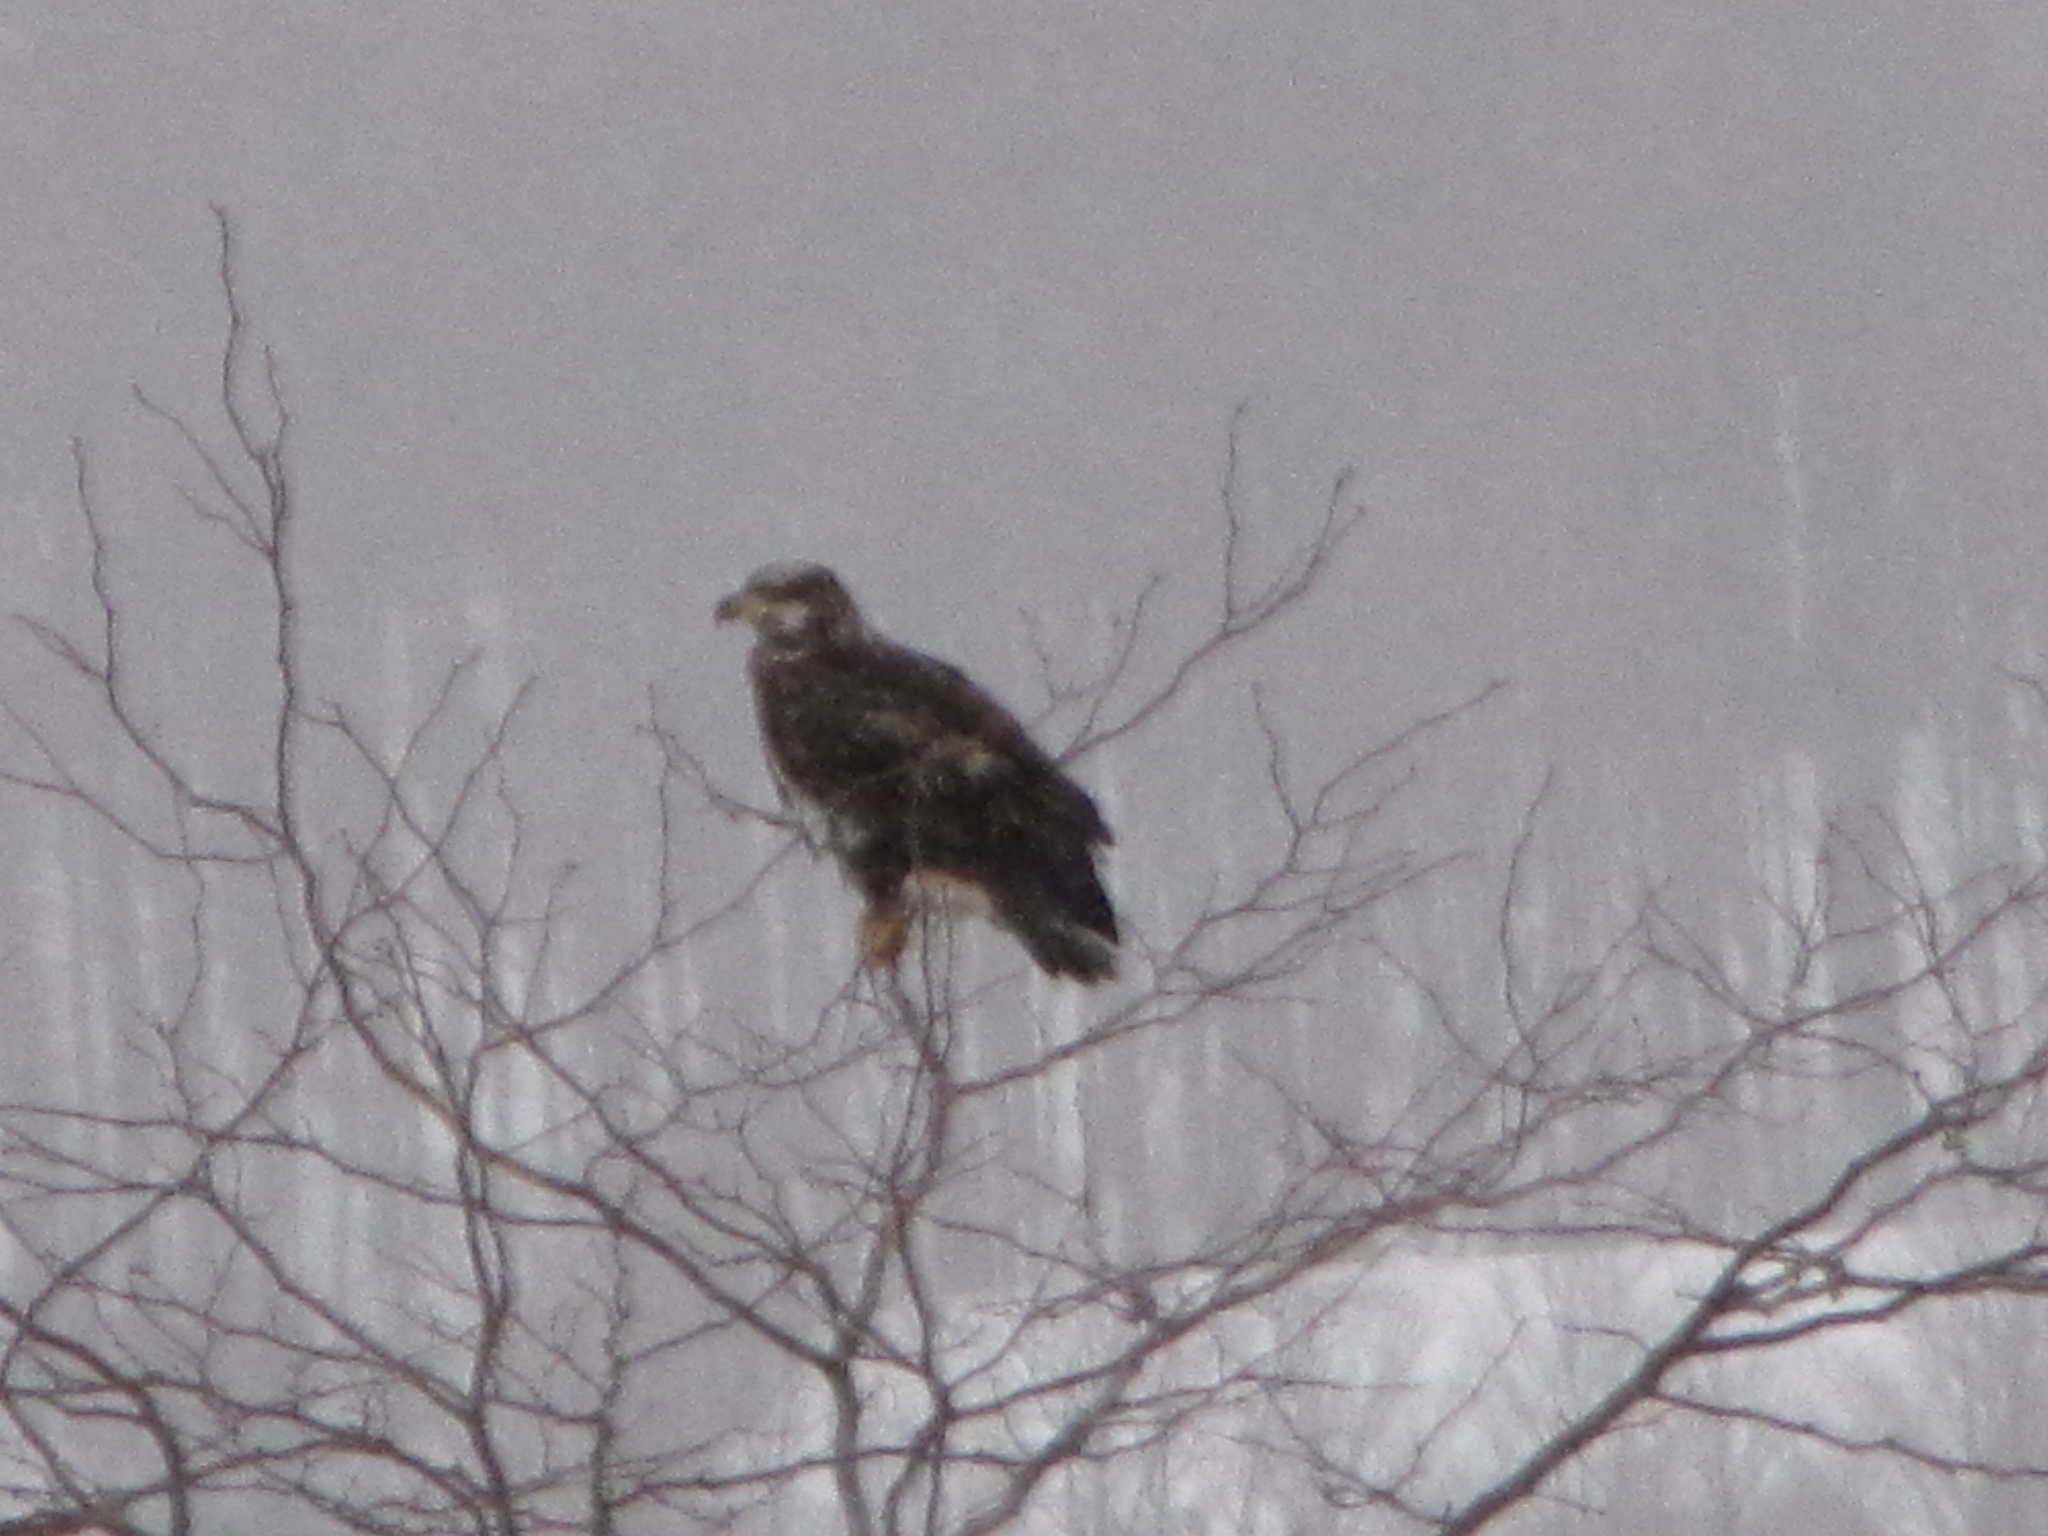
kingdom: Animalia
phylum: Chordata
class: Aves
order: Accipitriformes
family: Accipitridae
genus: Haliaeetus
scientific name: Haliaeetus leucocephalus
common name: Bald eagle
